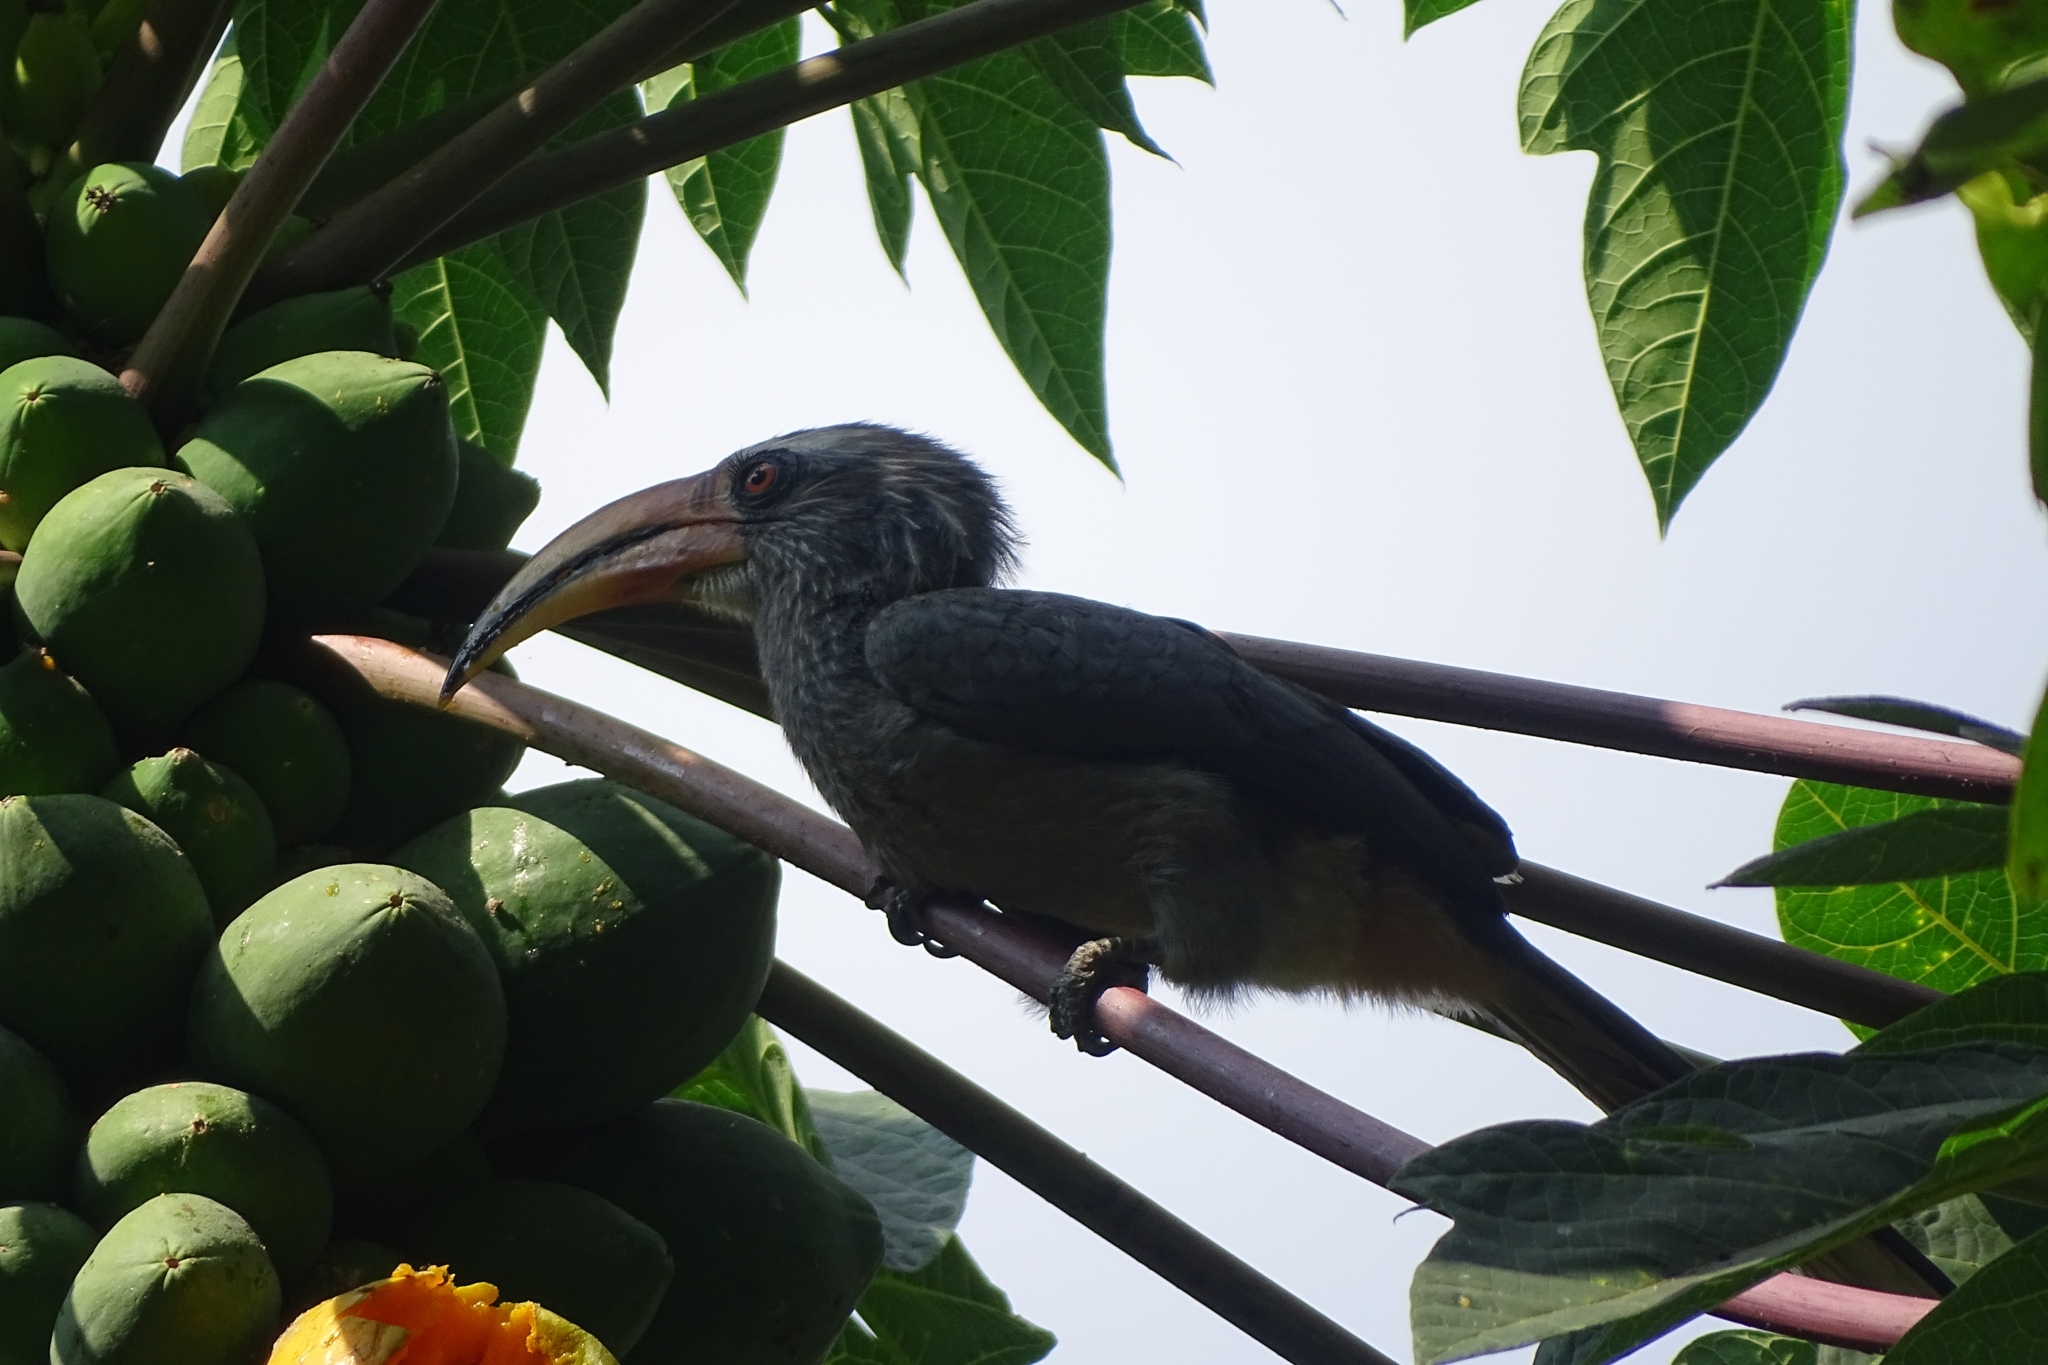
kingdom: Animalia
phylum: Chordata
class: Aves
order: Bucerotiformes
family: Bucerotidae
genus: Ocyceros
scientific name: Ocyceros griseus
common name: Malabar grey hornbill
